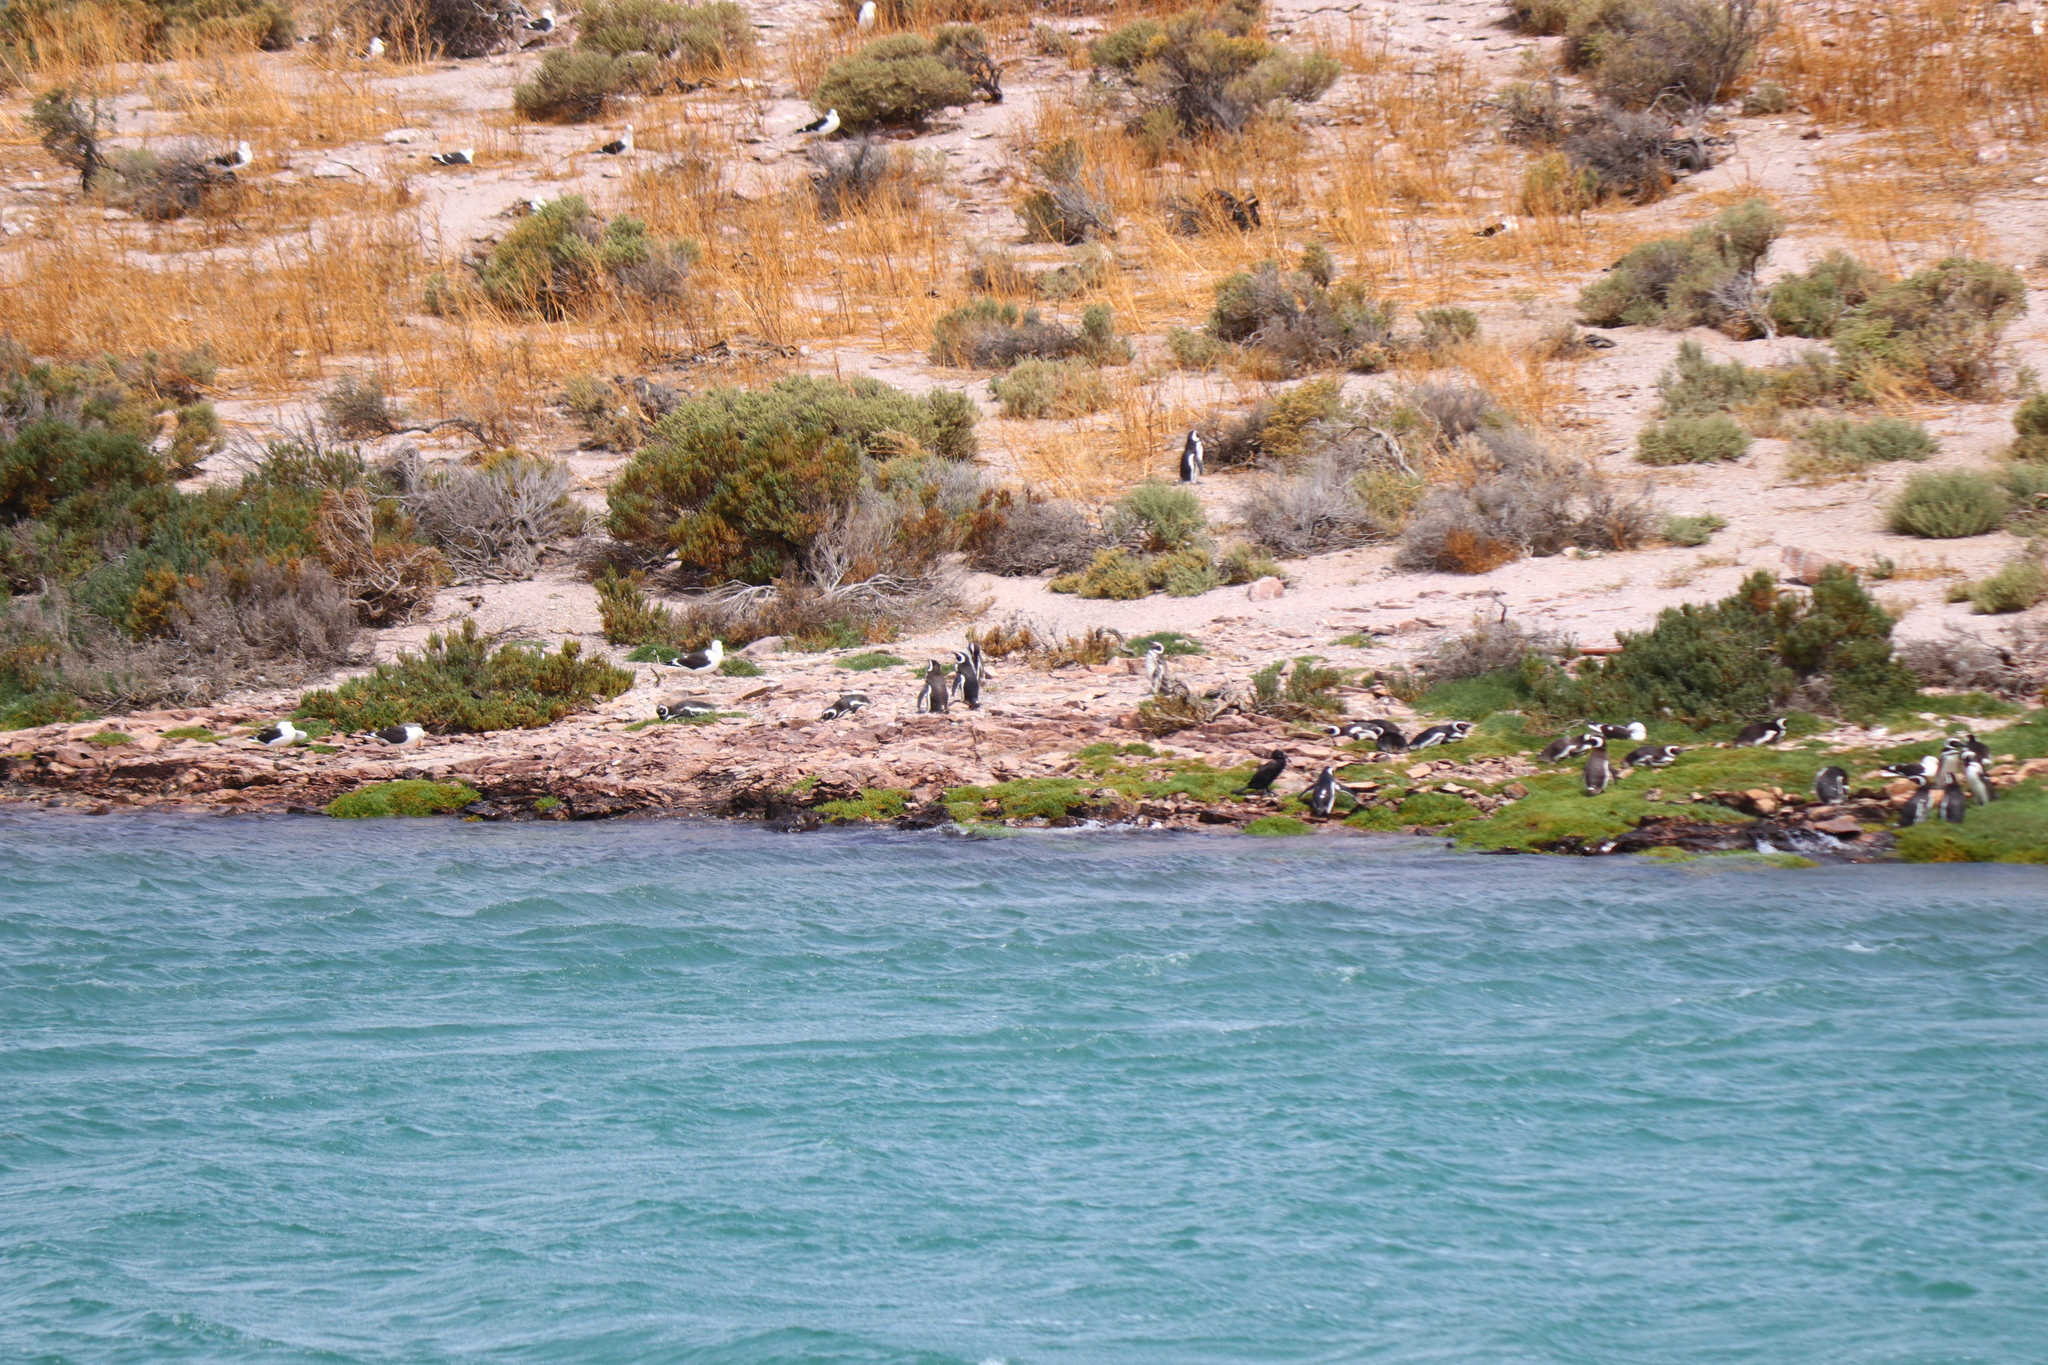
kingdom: Animalia
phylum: Chordata
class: Aves
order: Sphenisciformes
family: Spheniscidae
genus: Spheniscus
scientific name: Spheniscus magellanicus
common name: Magellanic penguin
